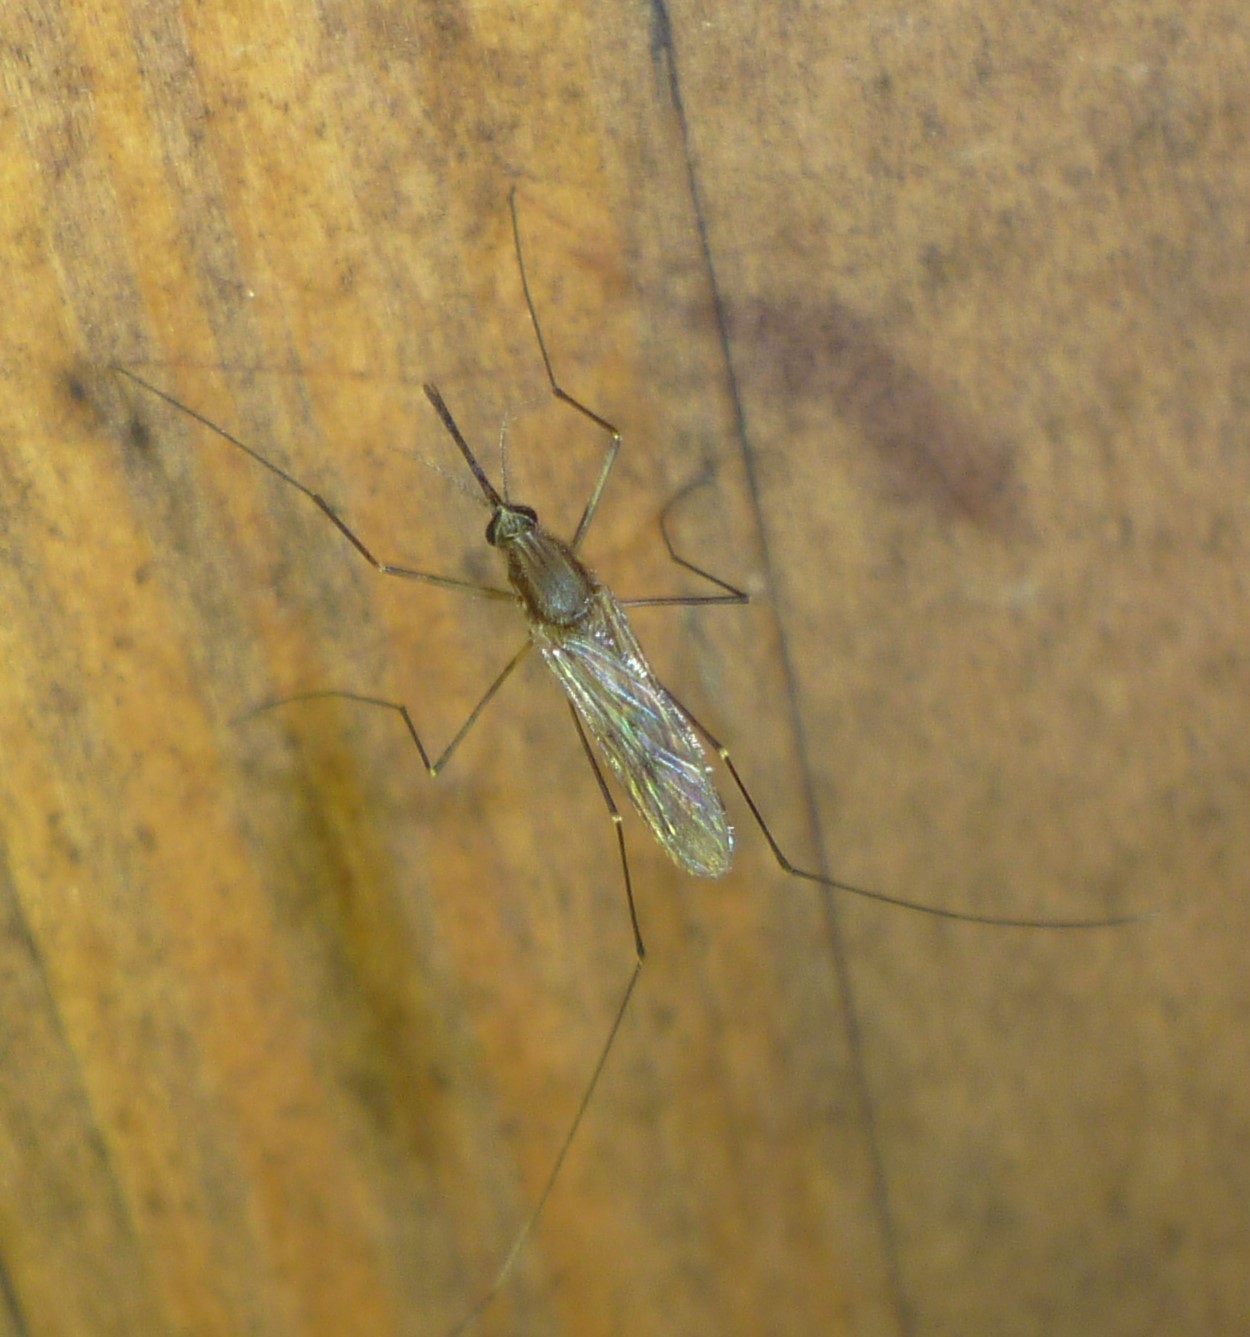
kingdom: Animalia
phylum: Arthropoda
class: Insecta
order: Diptera
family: Culicidae
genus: Anopheles
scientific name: Anopheles quadrimaculatus
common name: Common malaria mosquito
